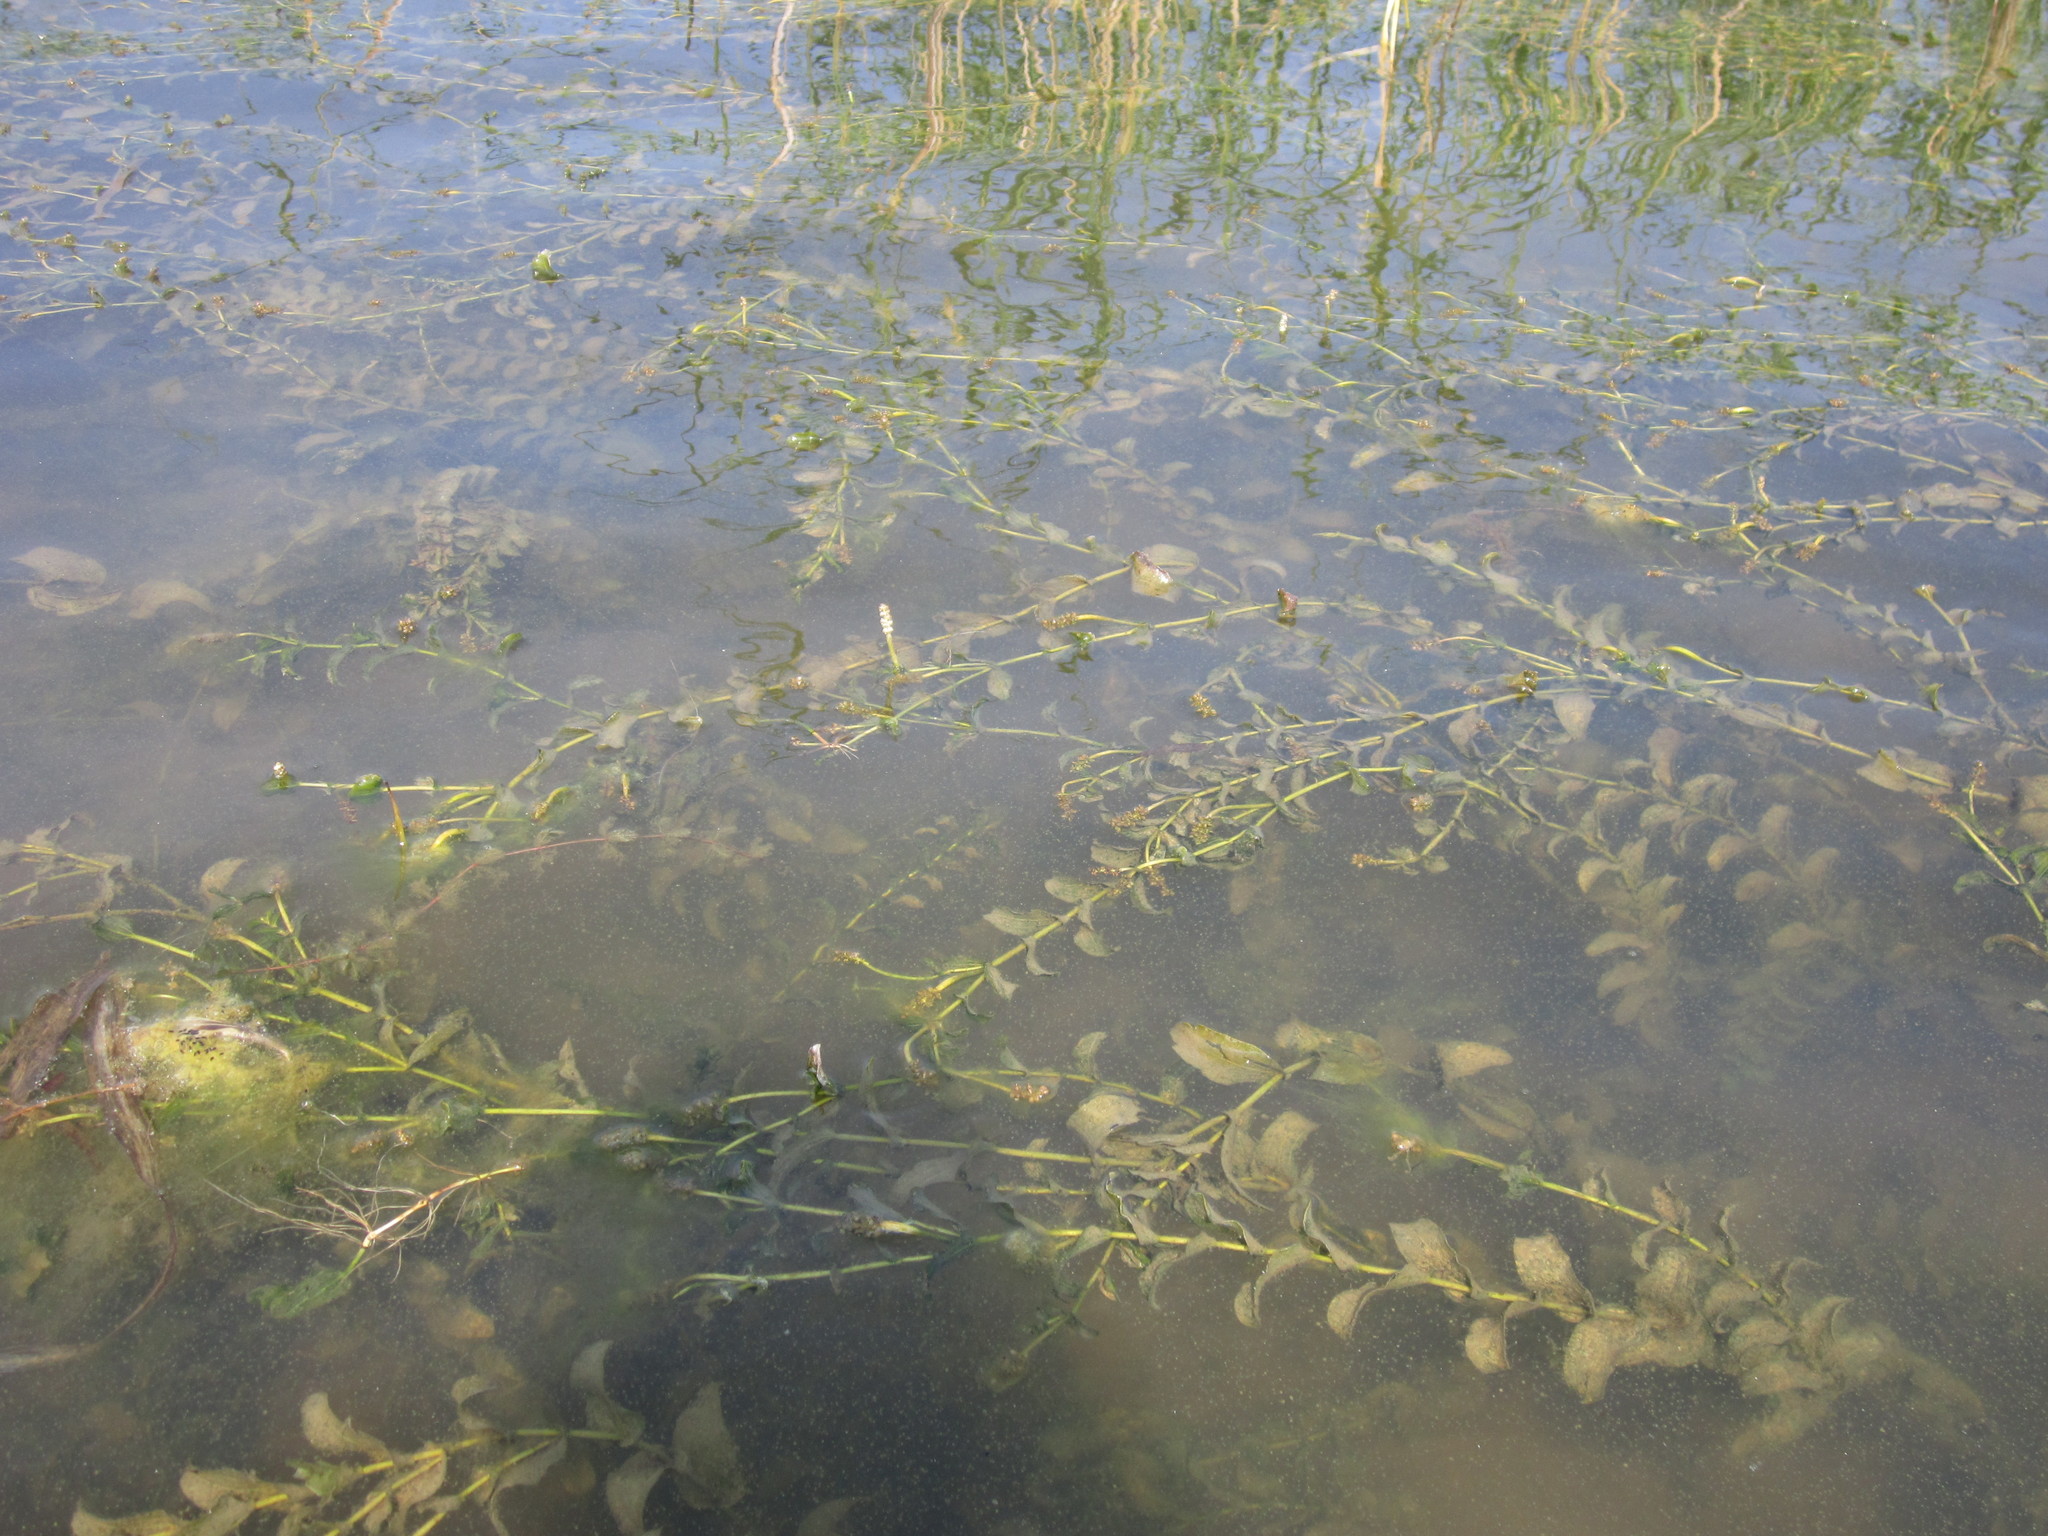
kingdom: Plantae
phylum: Tracheophyta
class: Liliopsida
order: Alismatales
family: Potamogetonaceae
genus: Potamogeton
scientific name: Potamogeton perfoliatus
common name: Perfoliate pondweed
